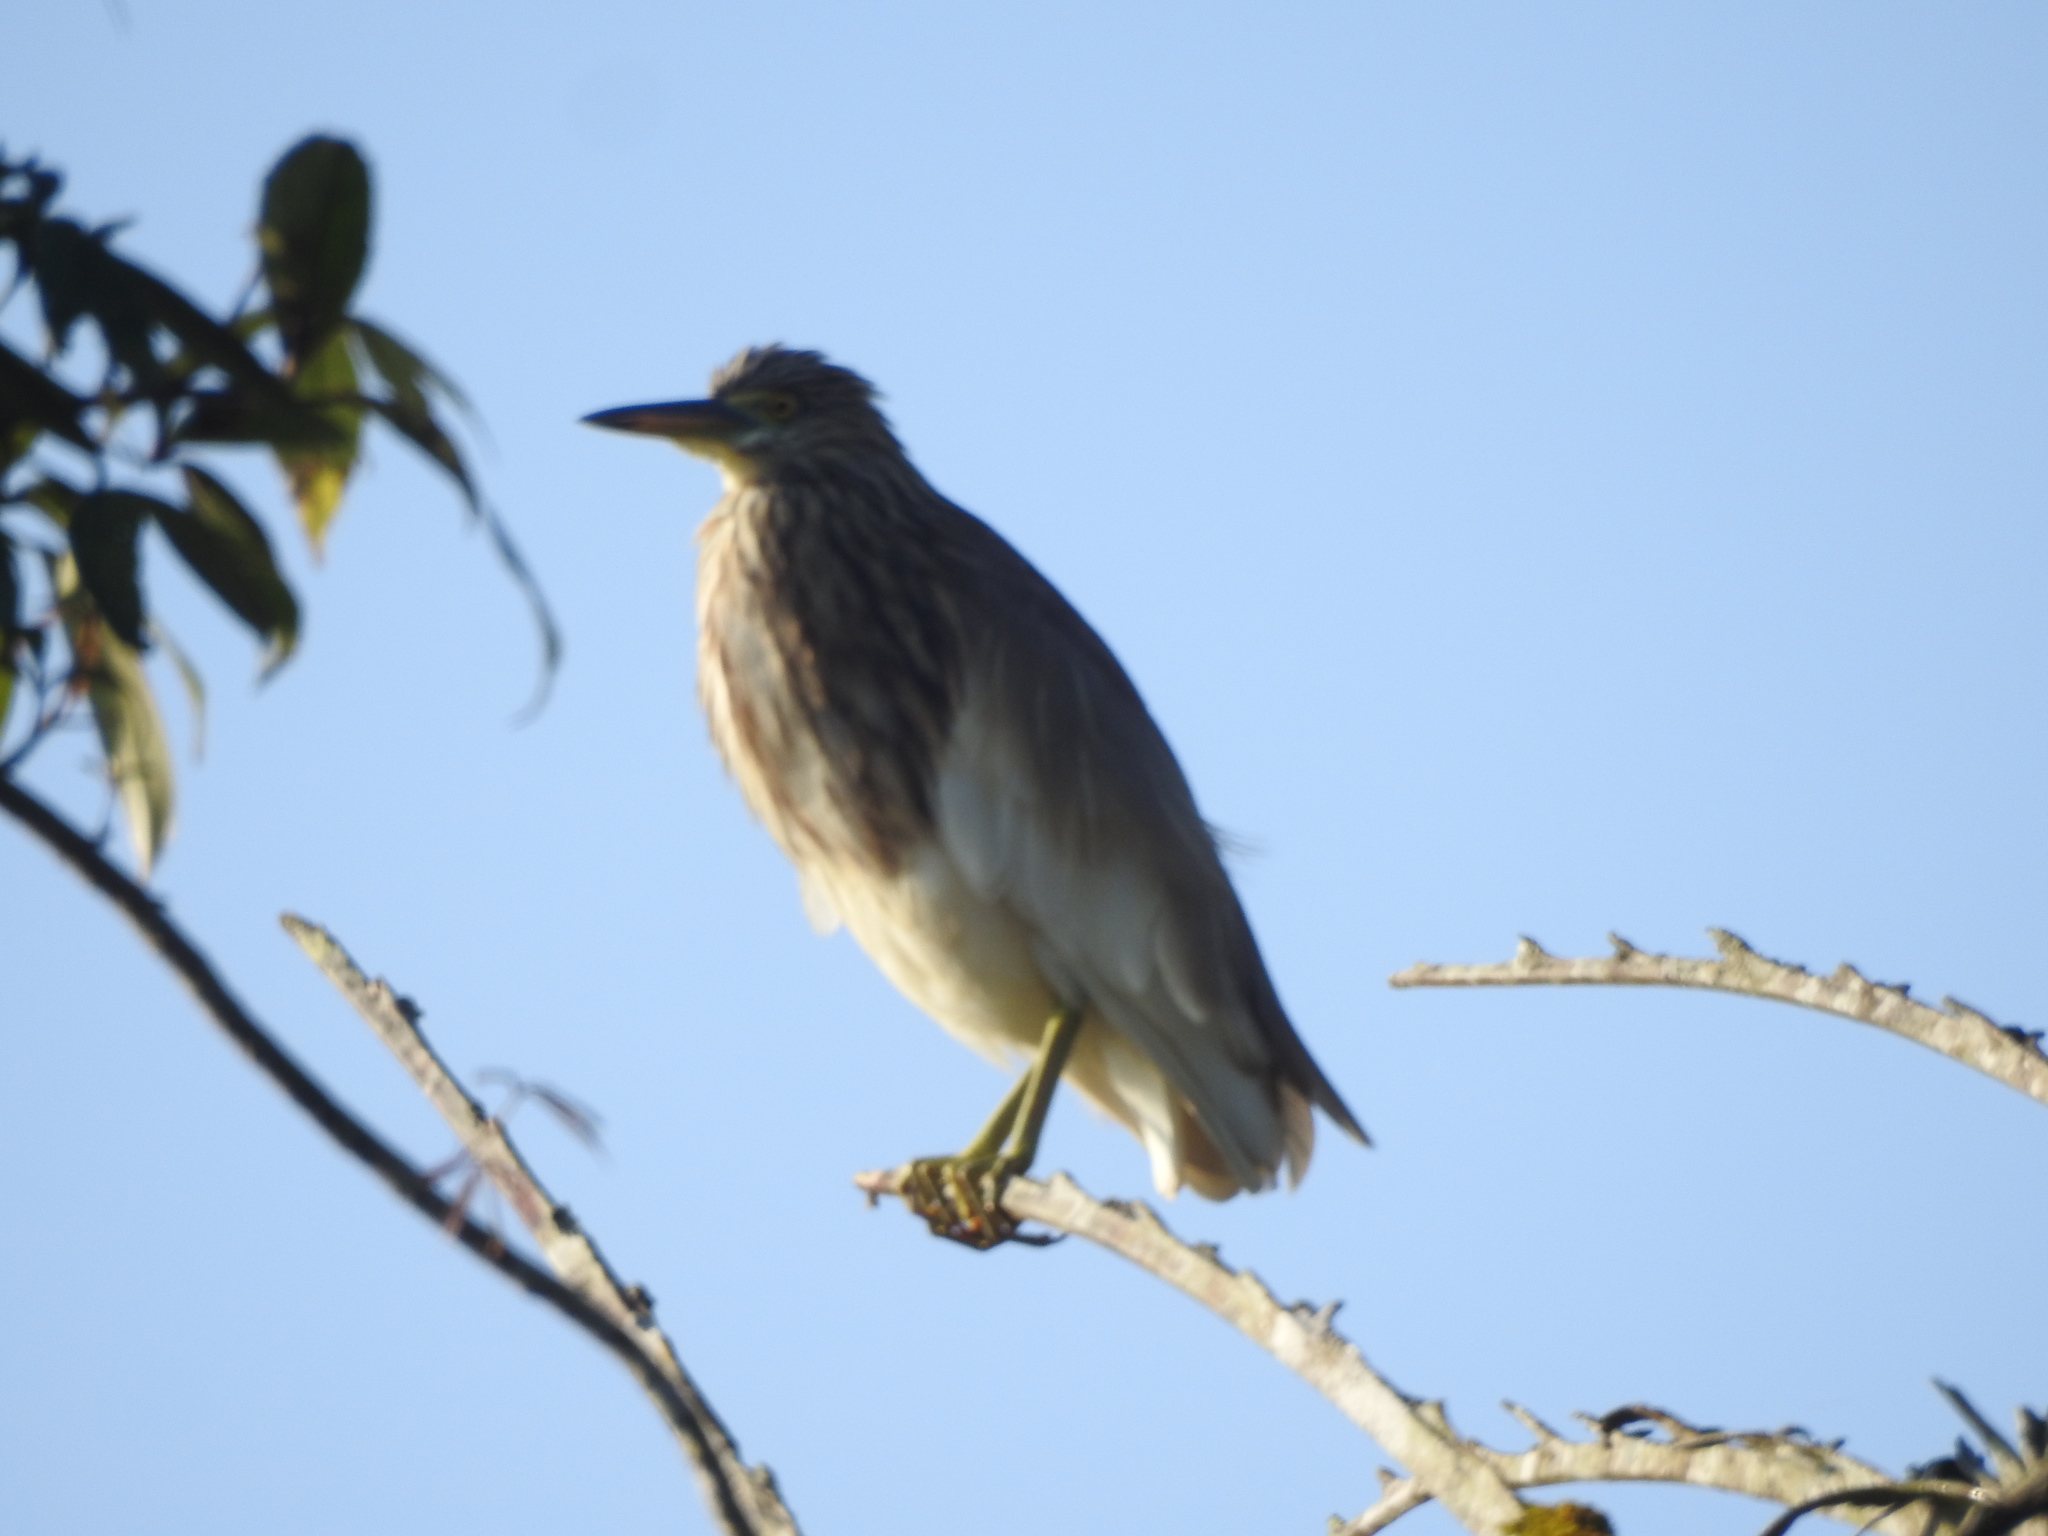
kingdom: Animalia
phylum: Chordata
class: Aves
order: Pelecaniformes
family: Ardeidae
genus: Ardeola
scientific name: Ardeola grayii
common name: Indian pond heron
